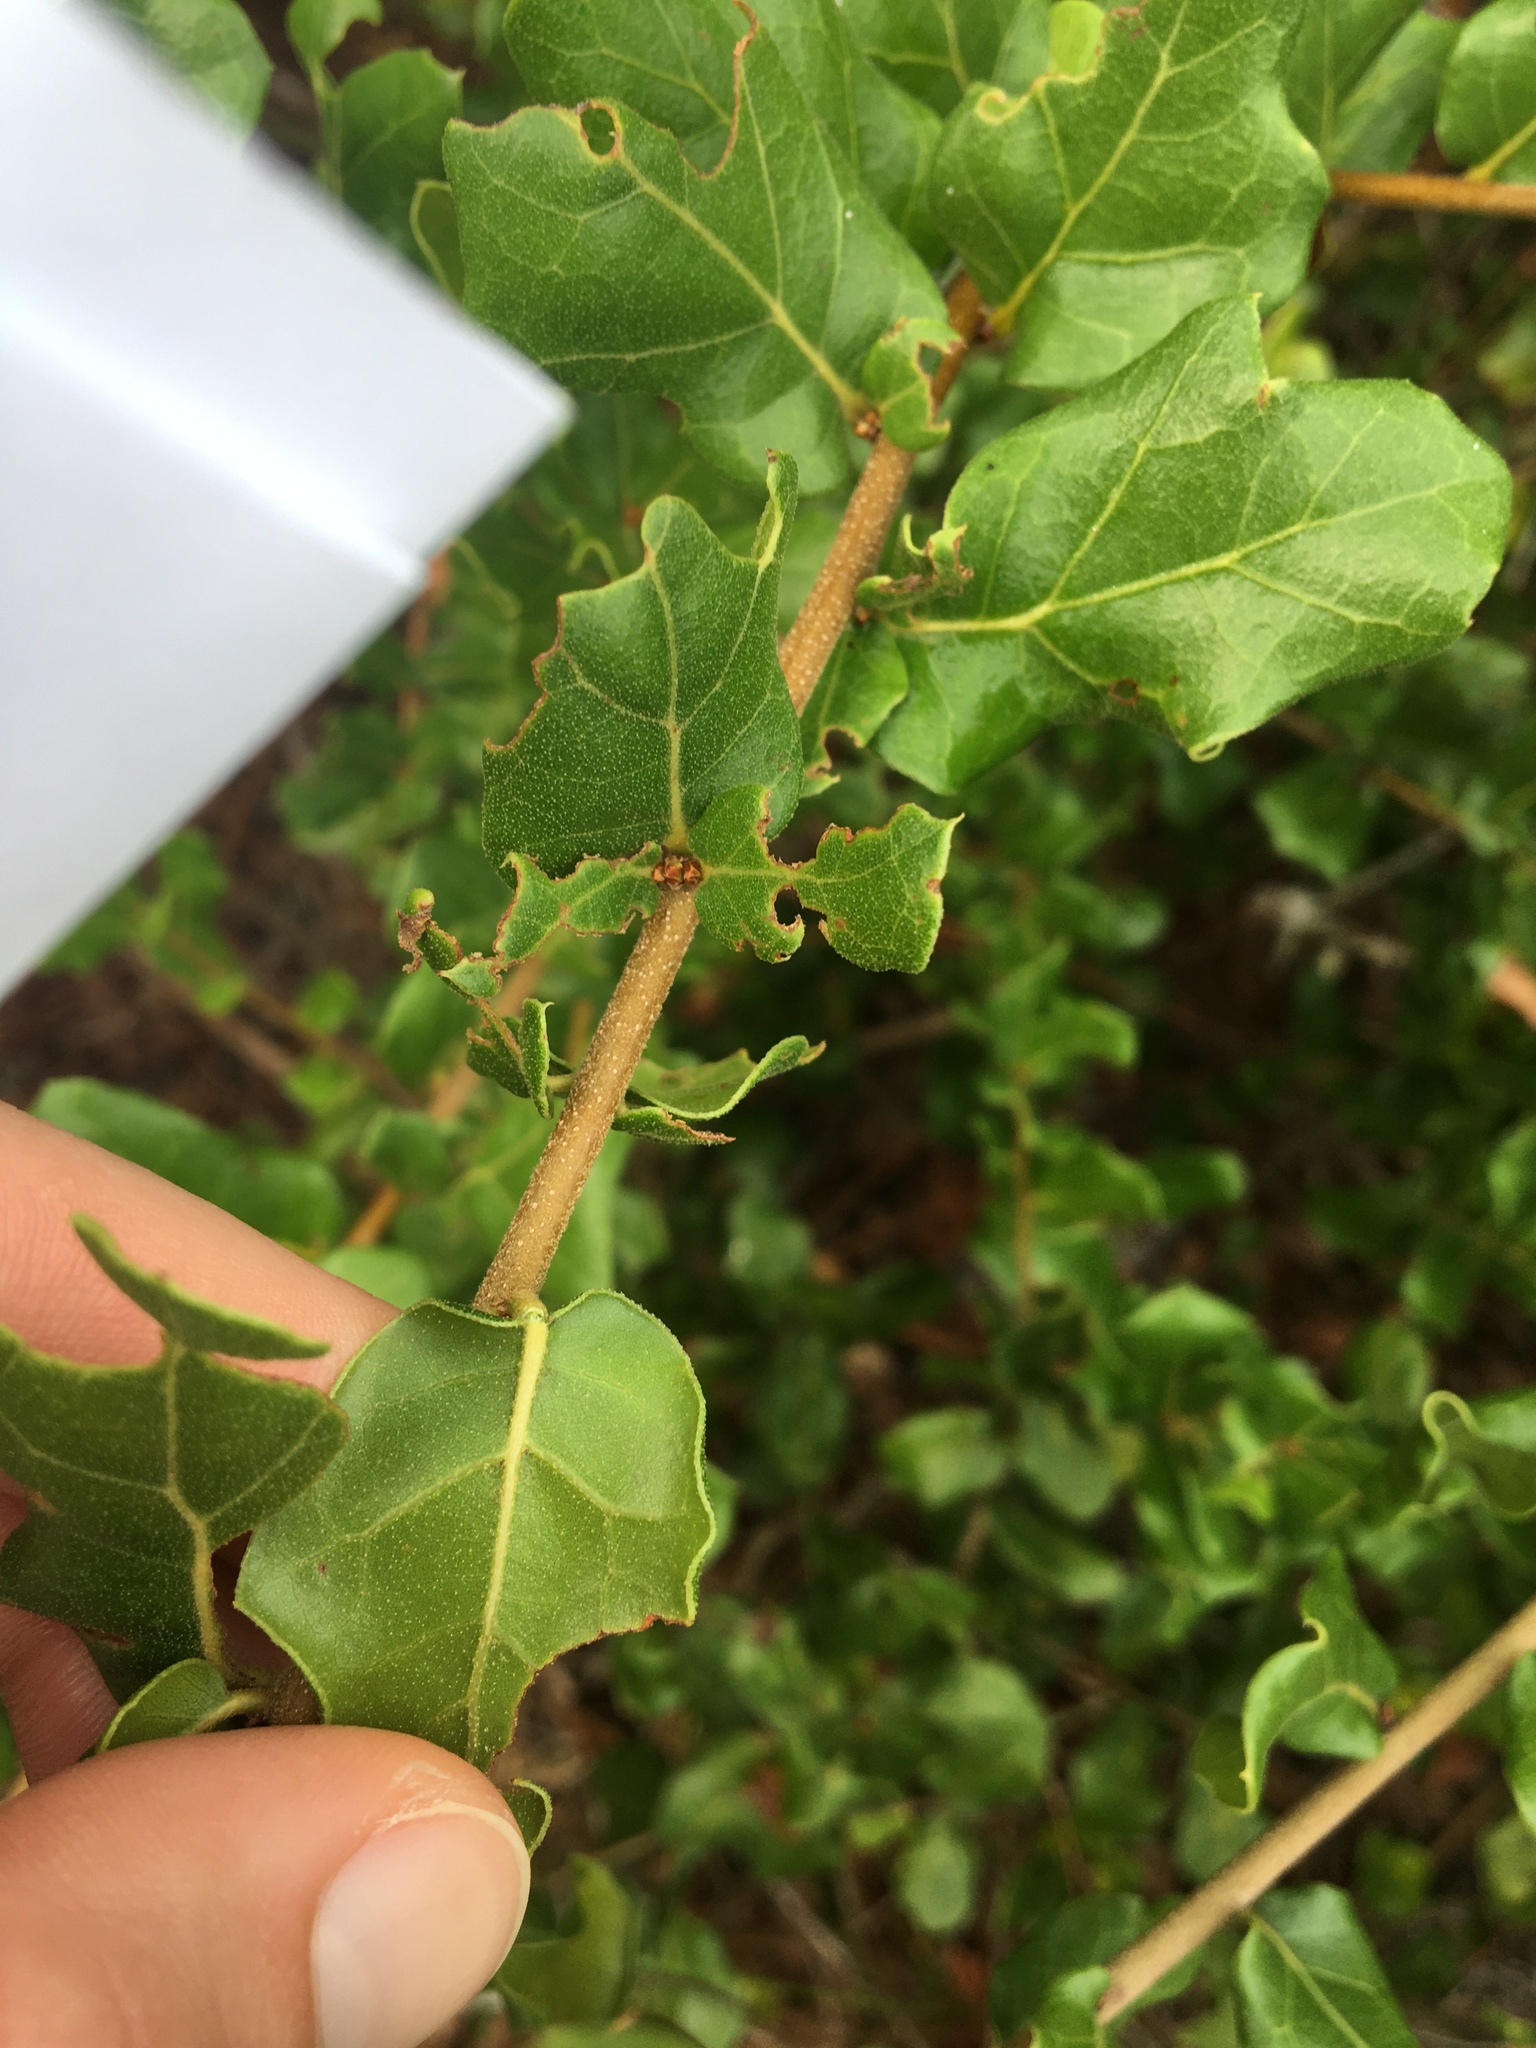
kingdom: Plantae
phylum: Tracheophyta
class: Magnoliopsida
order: Fagales
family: Fagaceae
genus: Quercus
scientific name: Quercus myrtifolia
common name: Myrtle oak
